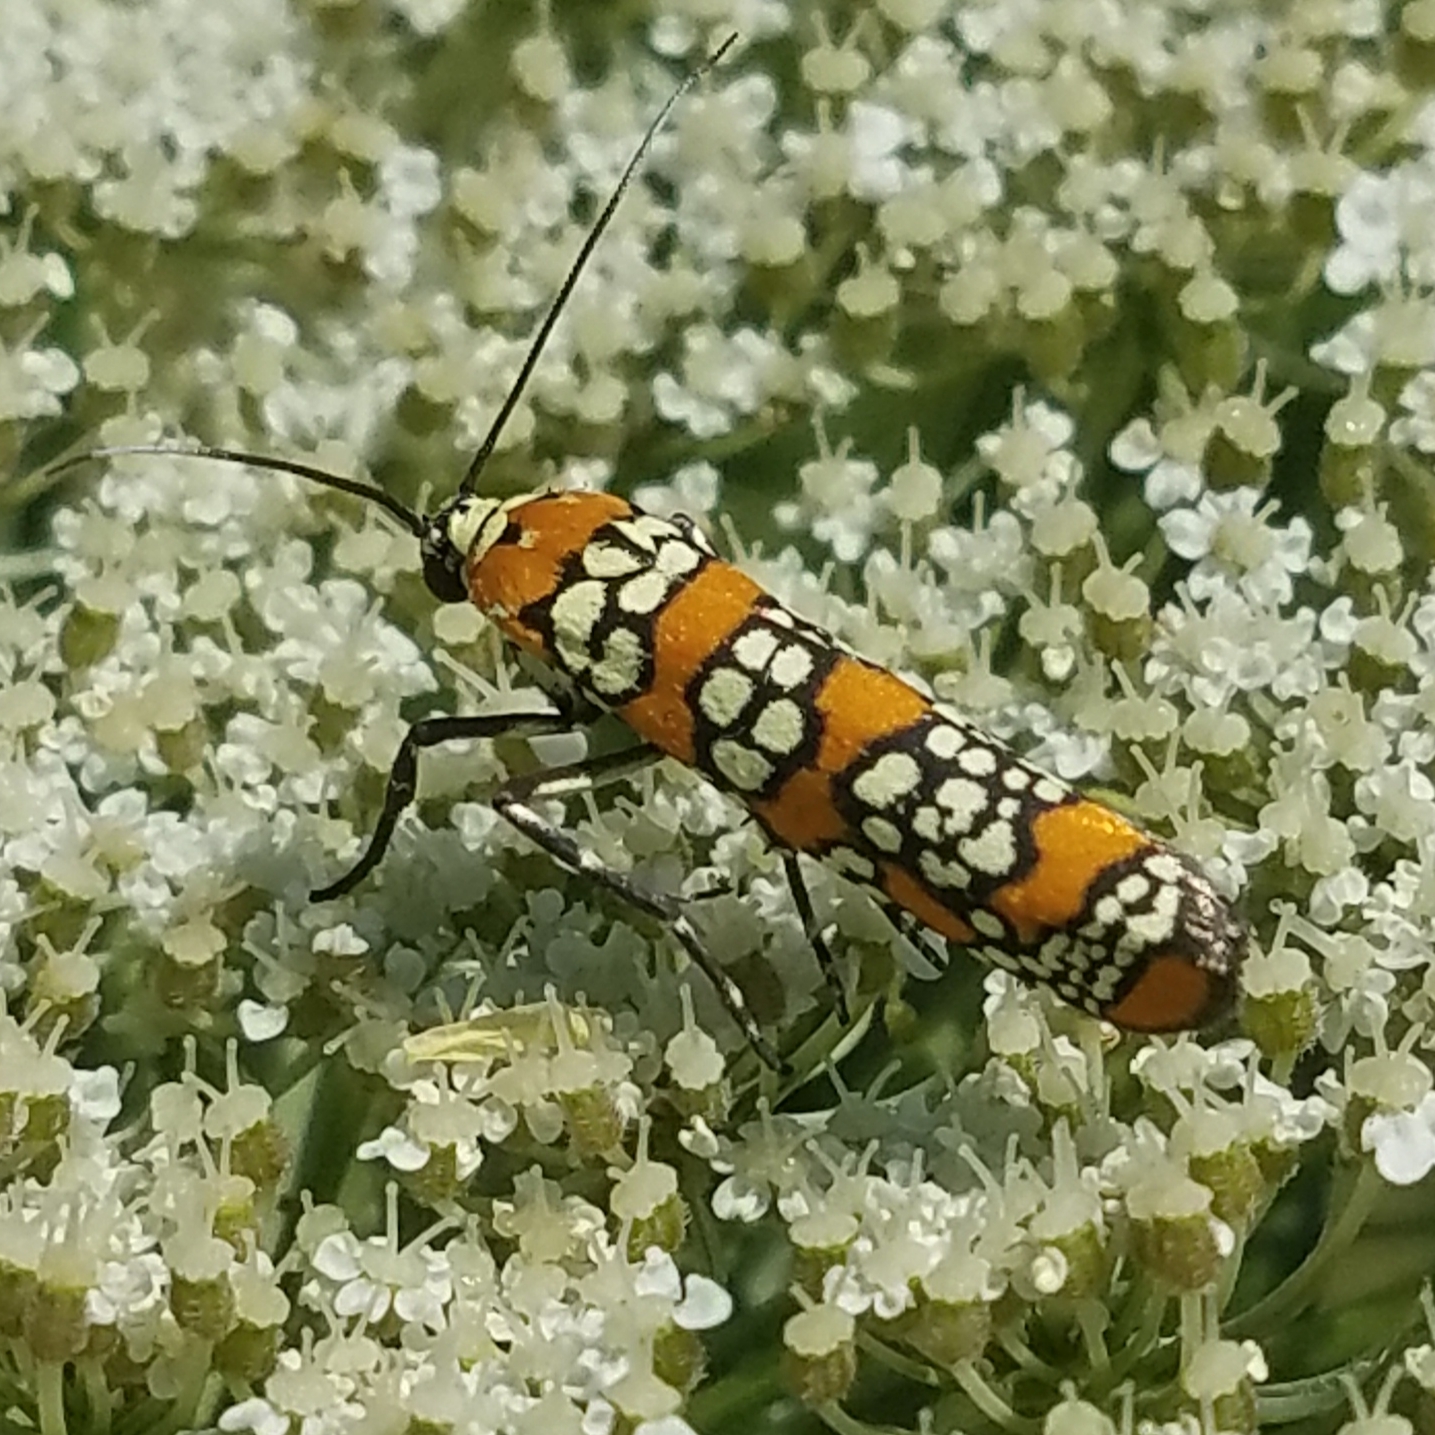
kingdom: Animalia
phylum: Arthropoda
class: Insecta
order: Lepidoptera
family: Attevidae
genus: Atteva
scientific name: Atteva punctella
